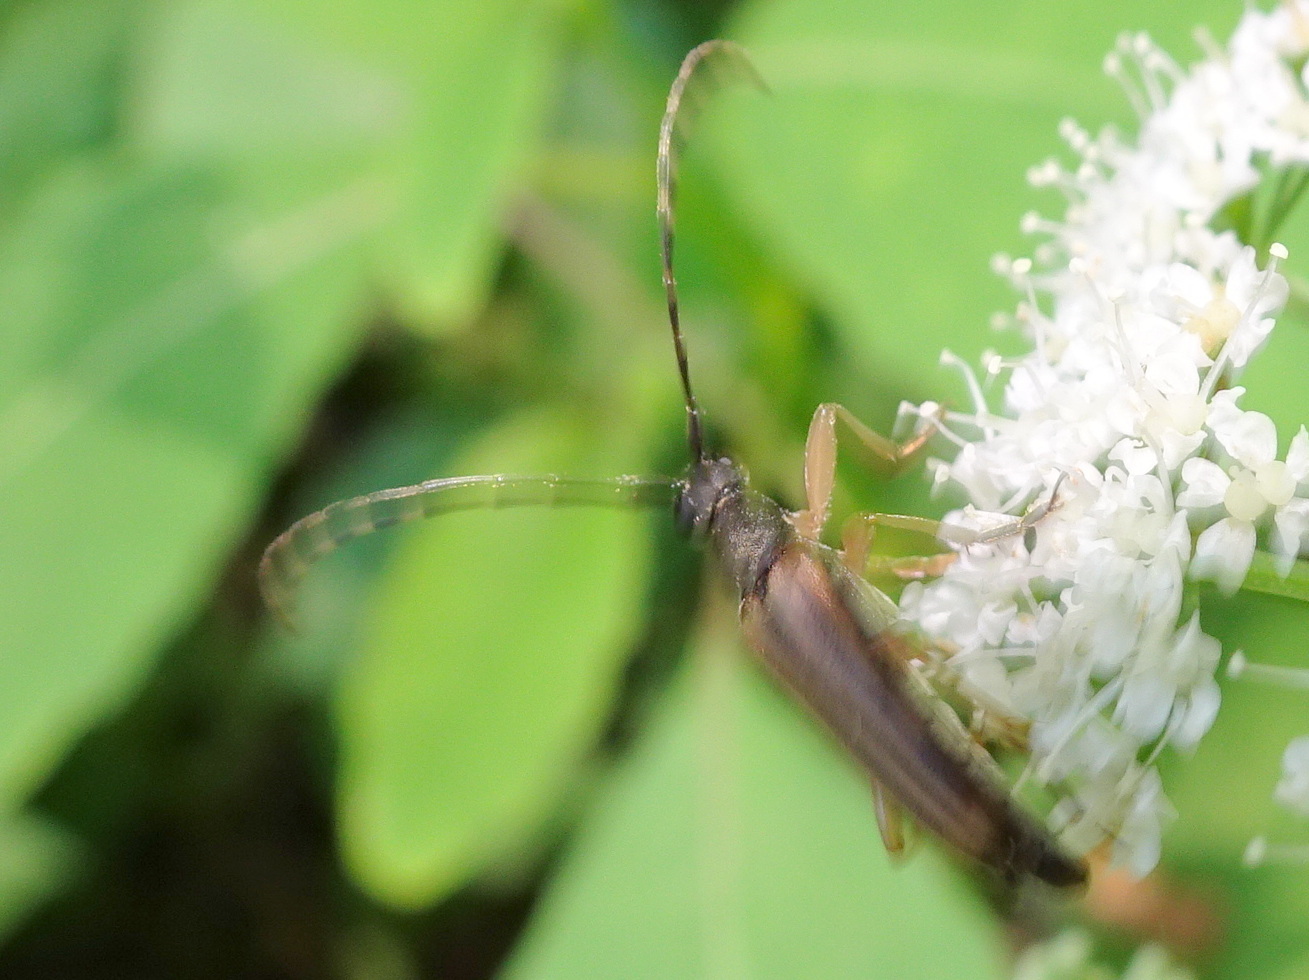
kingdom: Animalia
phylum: Arthropoda
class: Insecta
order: Coleoptera
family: Cerambycidae
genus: Analeptura
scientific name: Analeptura lineola
